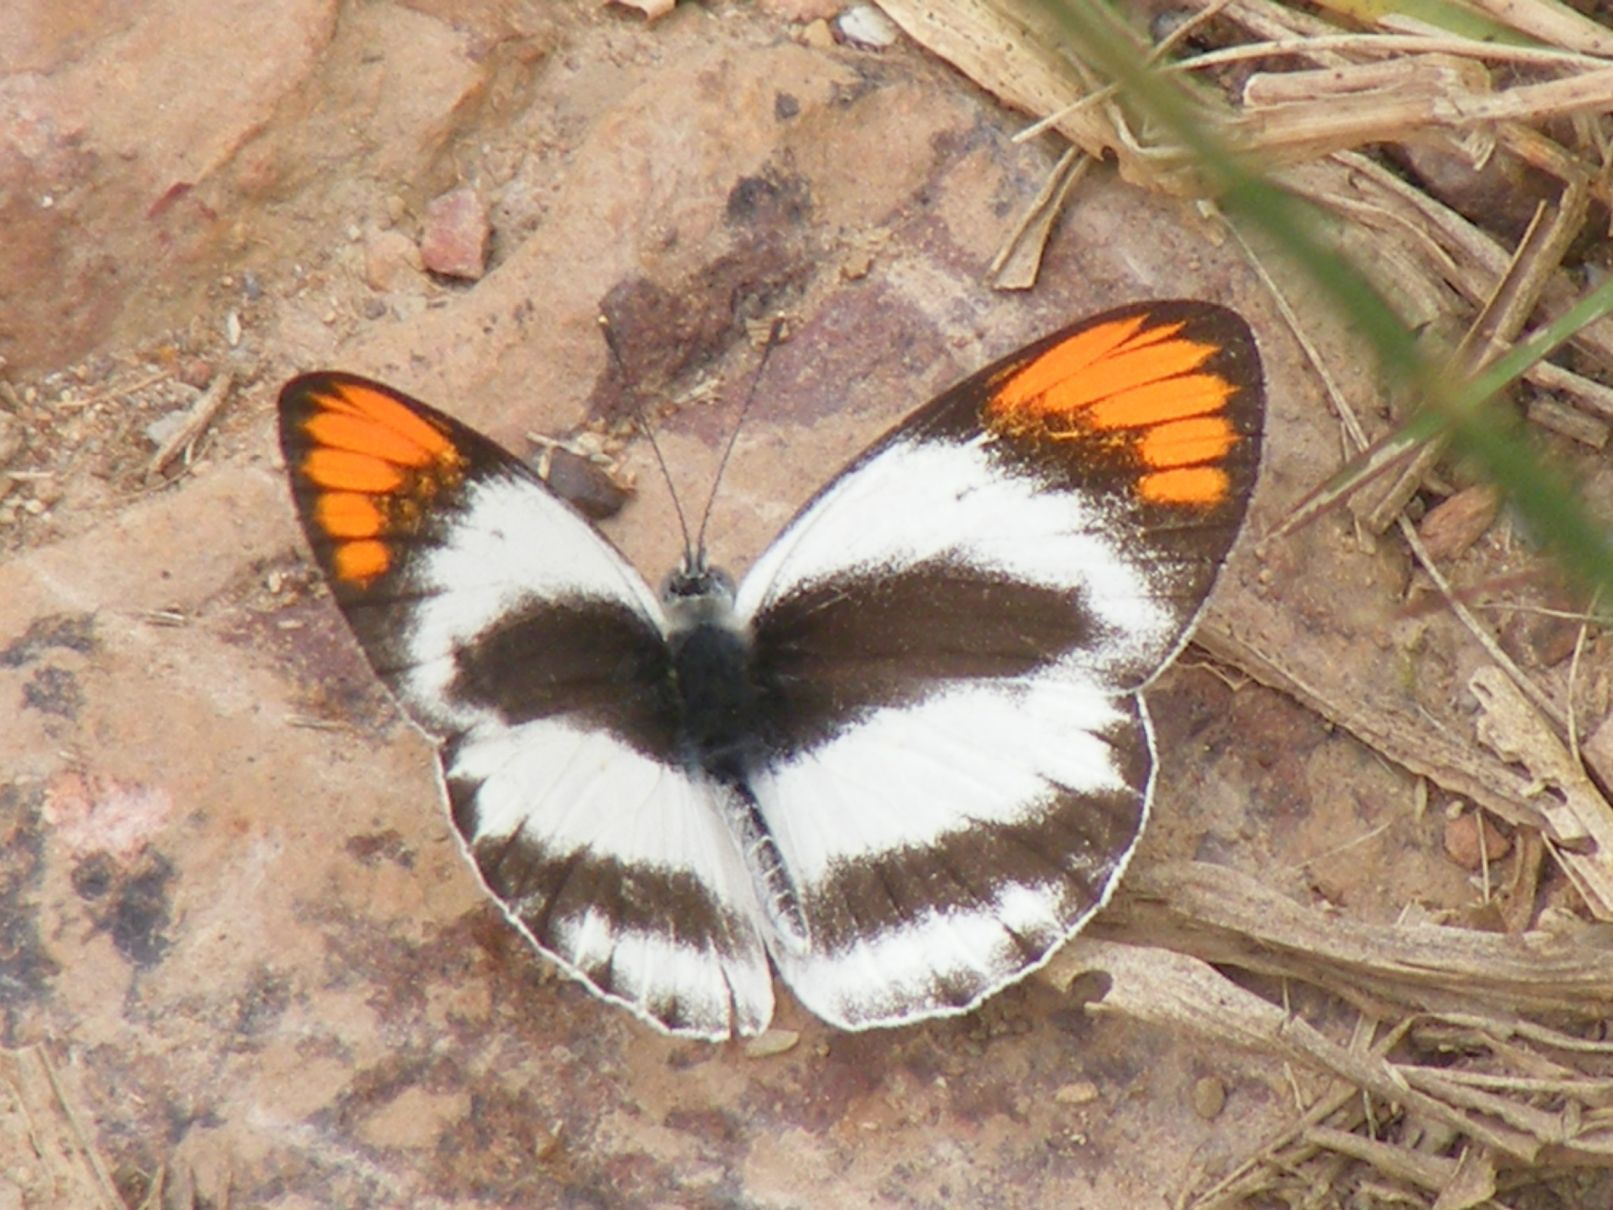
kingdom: Animalia
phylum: Arthropoda
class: Insecta
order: Lepidoptera
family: Pieridae
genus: Colotis
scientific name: Colotis euippe
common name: Round-winged orange tip
